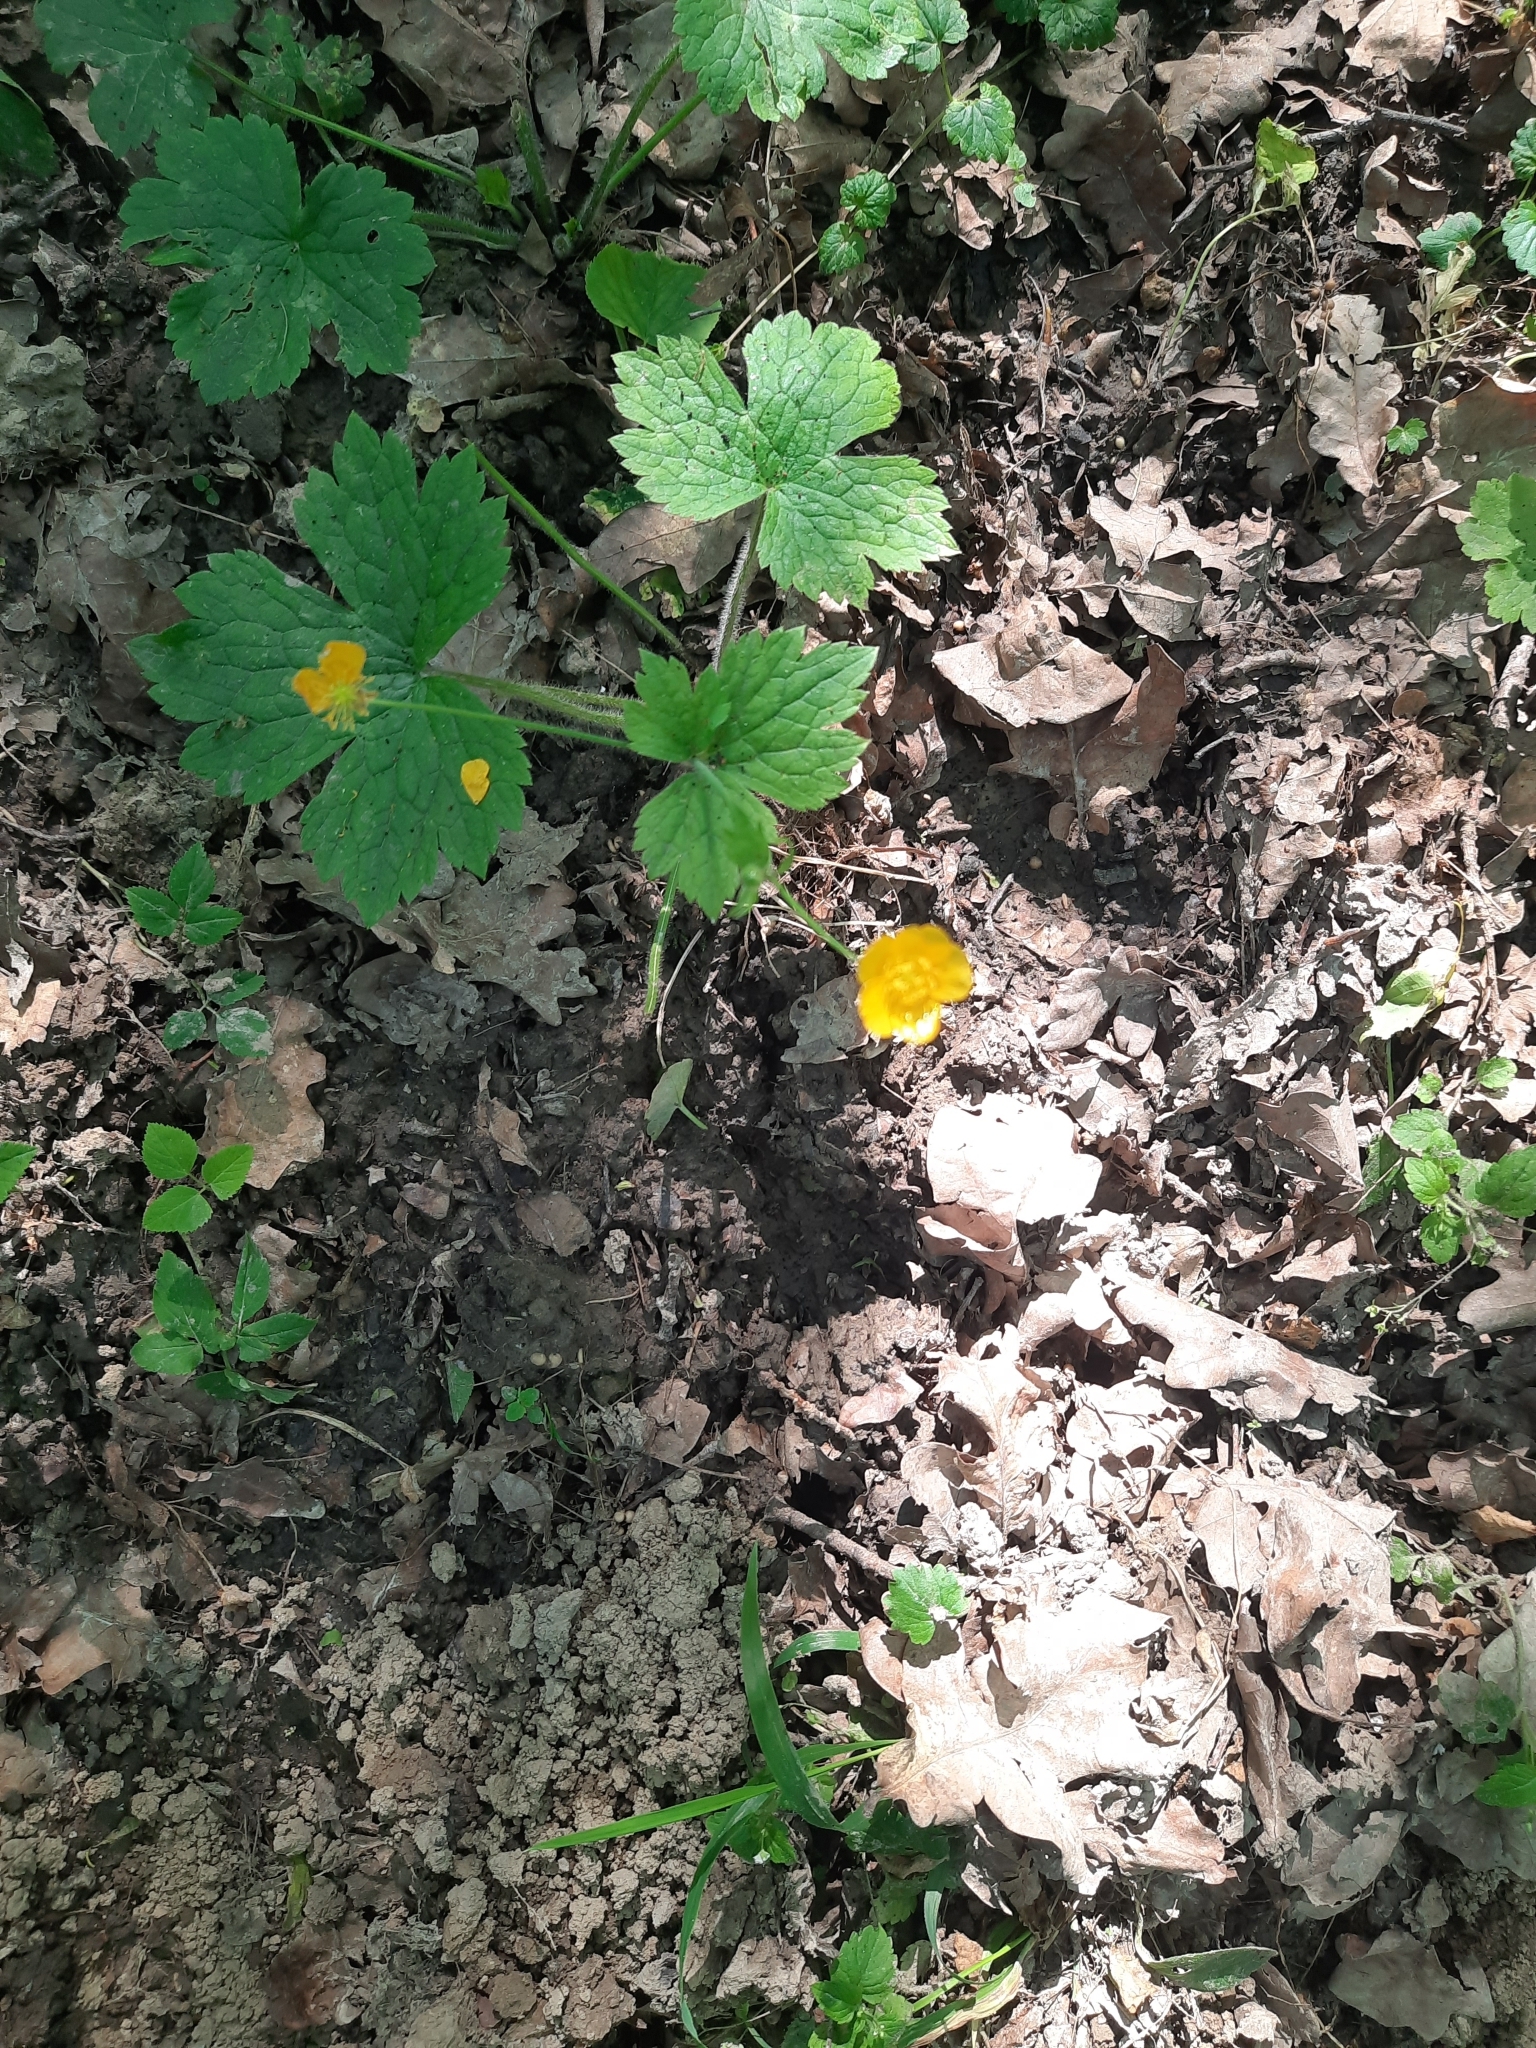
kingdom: Plantae
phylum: Tracheophyta
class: Magnoliopsida
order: Ranunculales
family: Ranunculaceae
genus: Ranunculus
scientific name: Ranunculus lanuginosus
